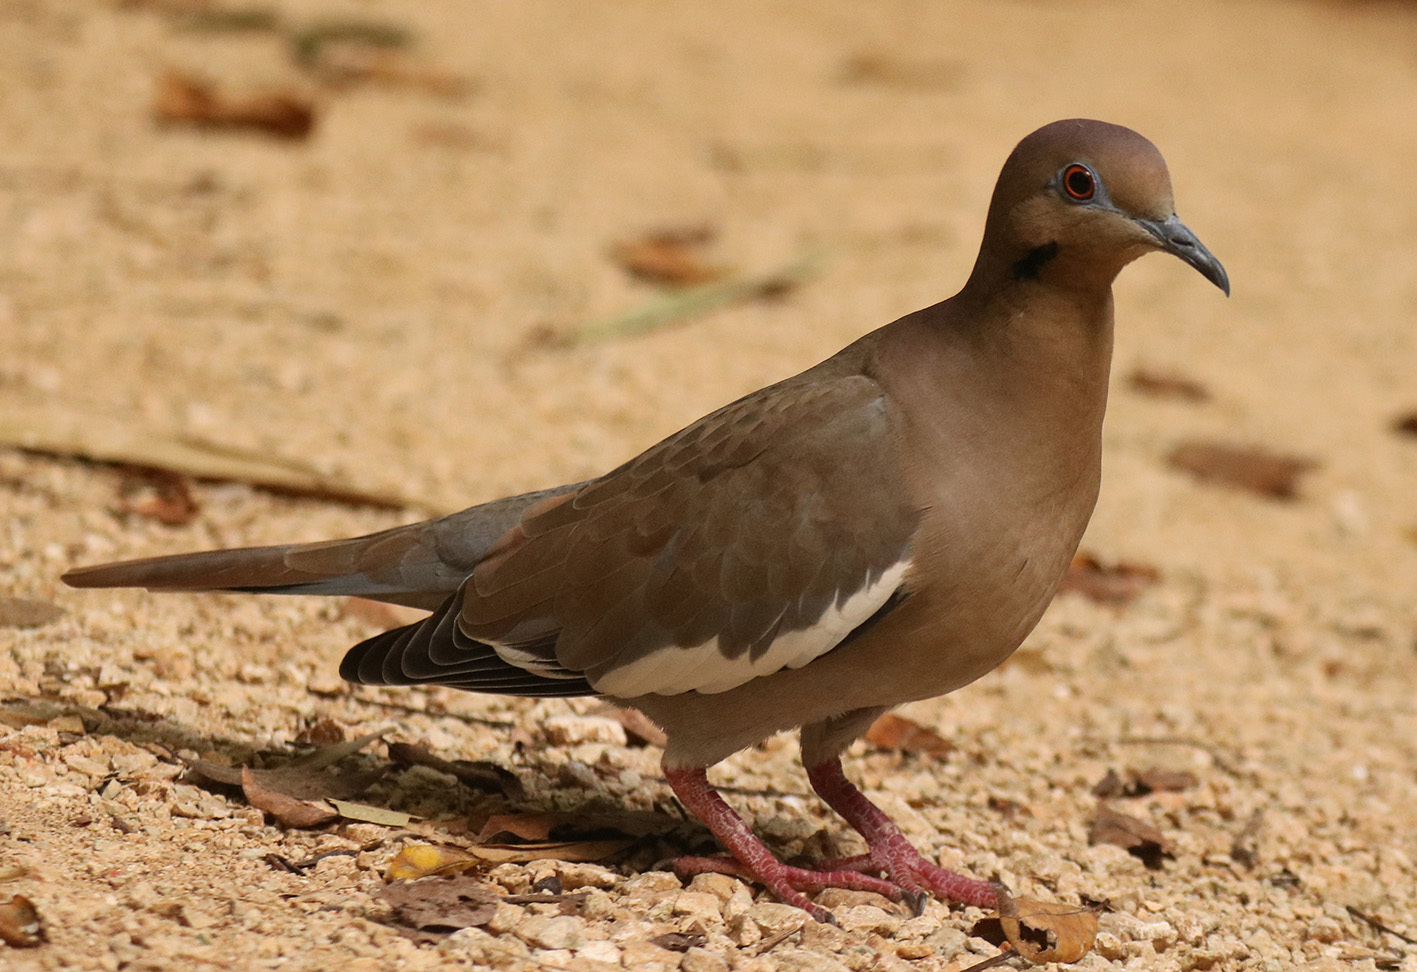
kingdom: Animalia
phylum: Chordata
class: Aves
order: Columbiformes
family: Columbidae
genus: Zenaida
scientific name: Zenaida asiatica
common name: White-winged dove
